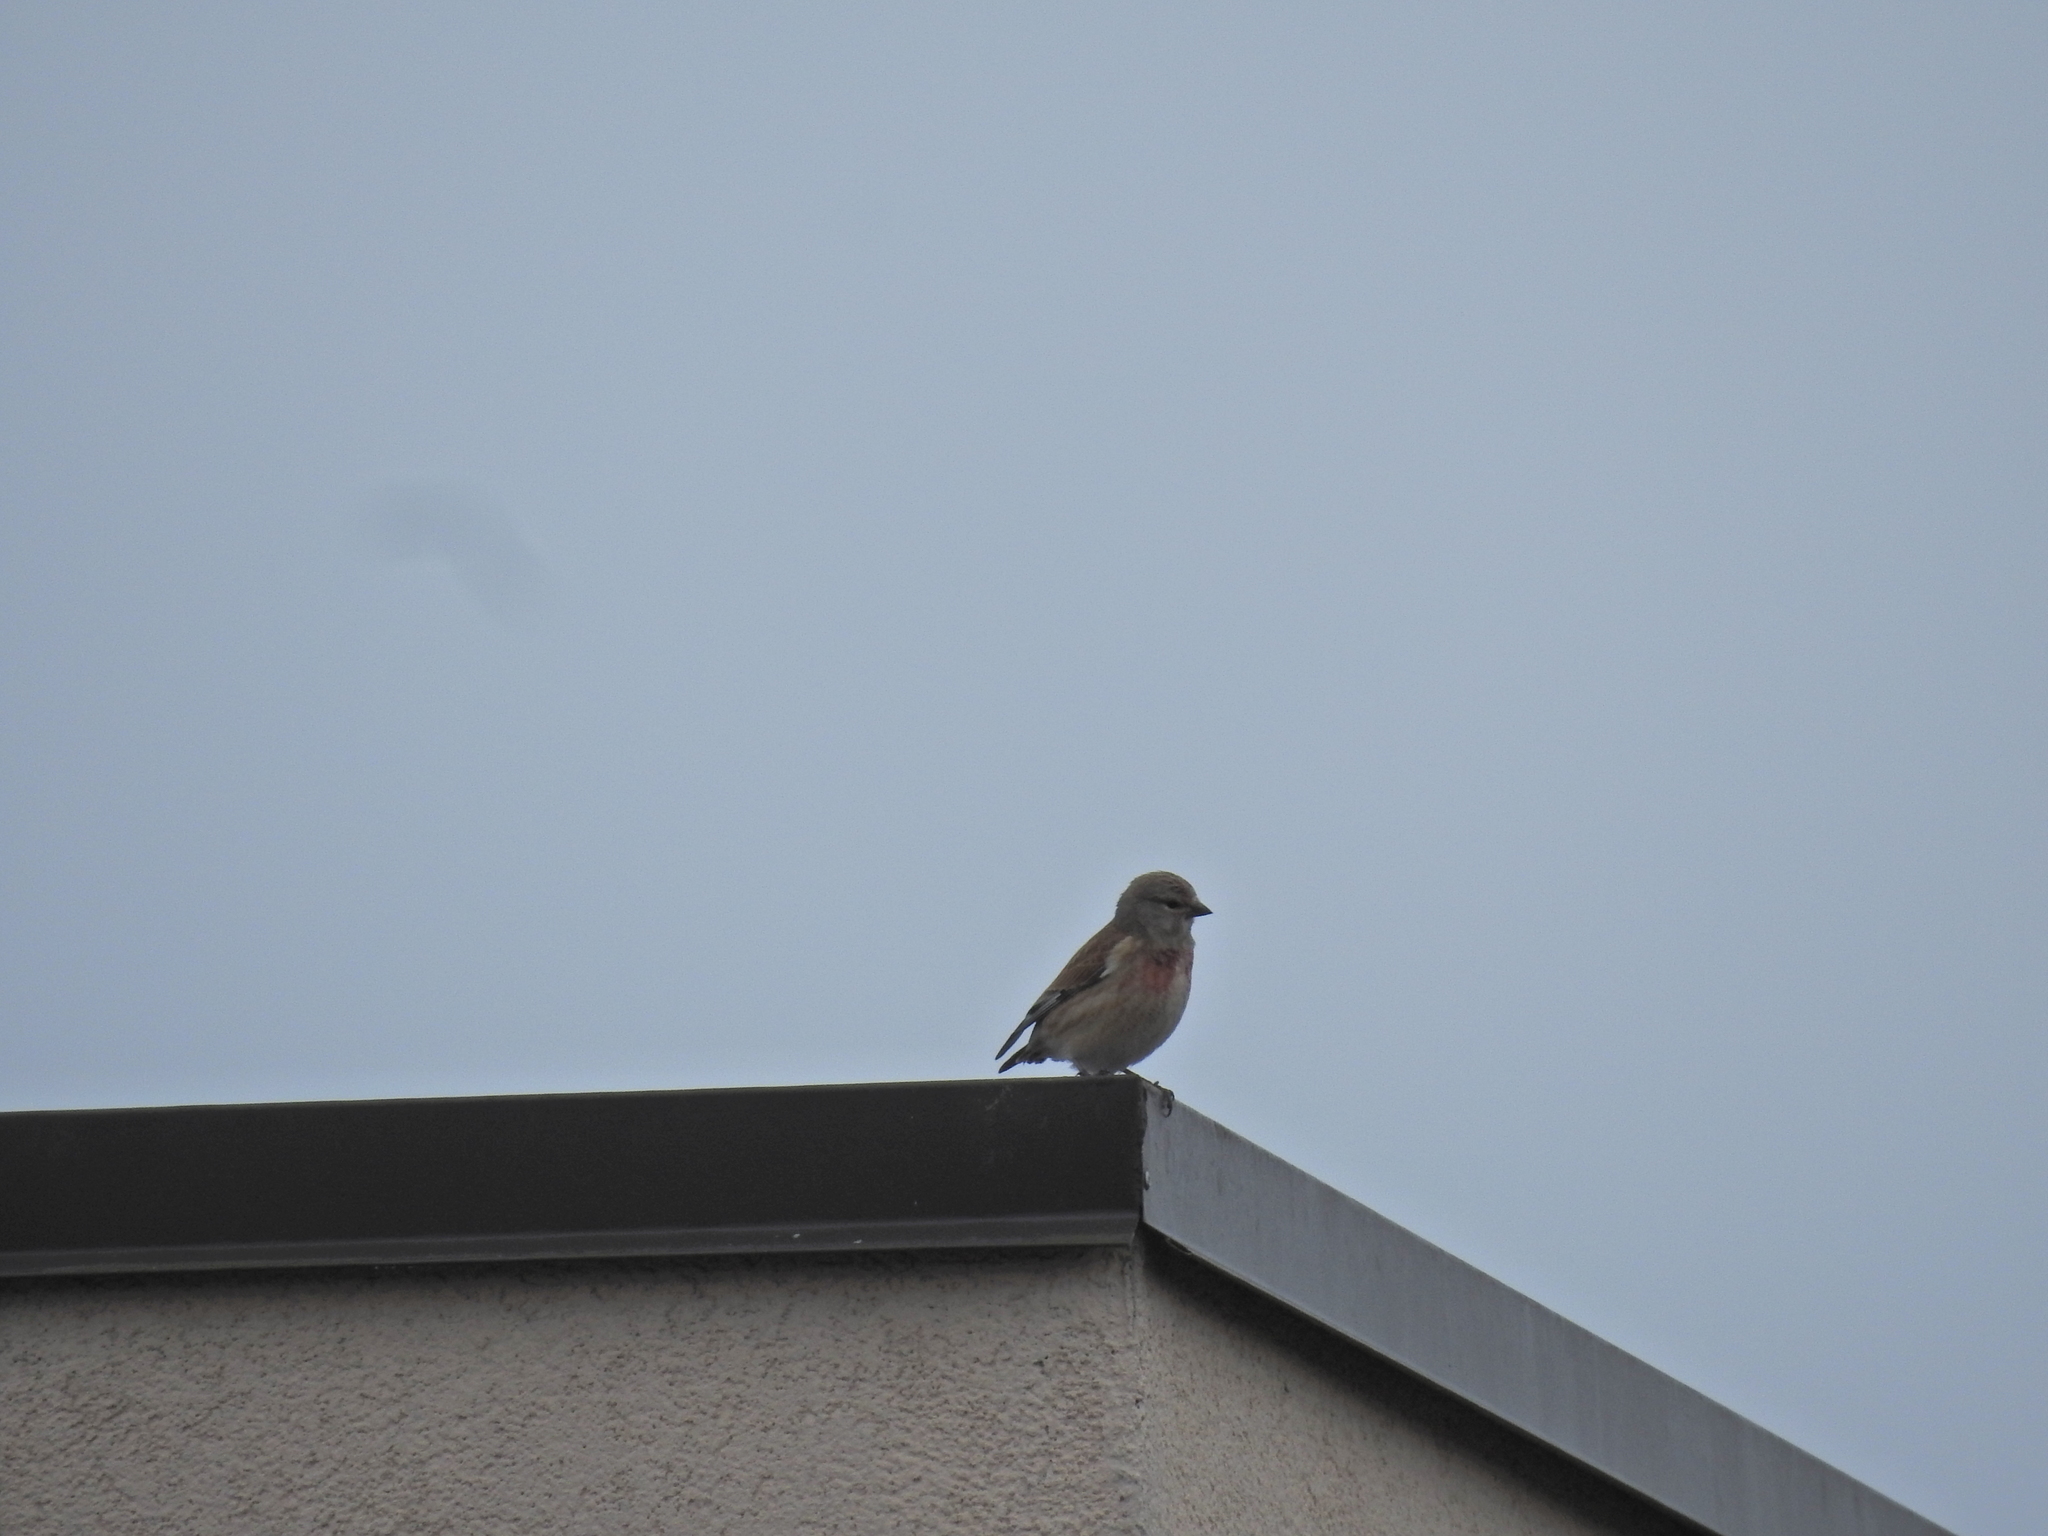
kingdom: Animalia
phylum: Chordata
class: Aves
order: Passeriformes
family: Fringillidae
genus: Linaria
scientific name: Linaria cannabina
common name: Common linnet
